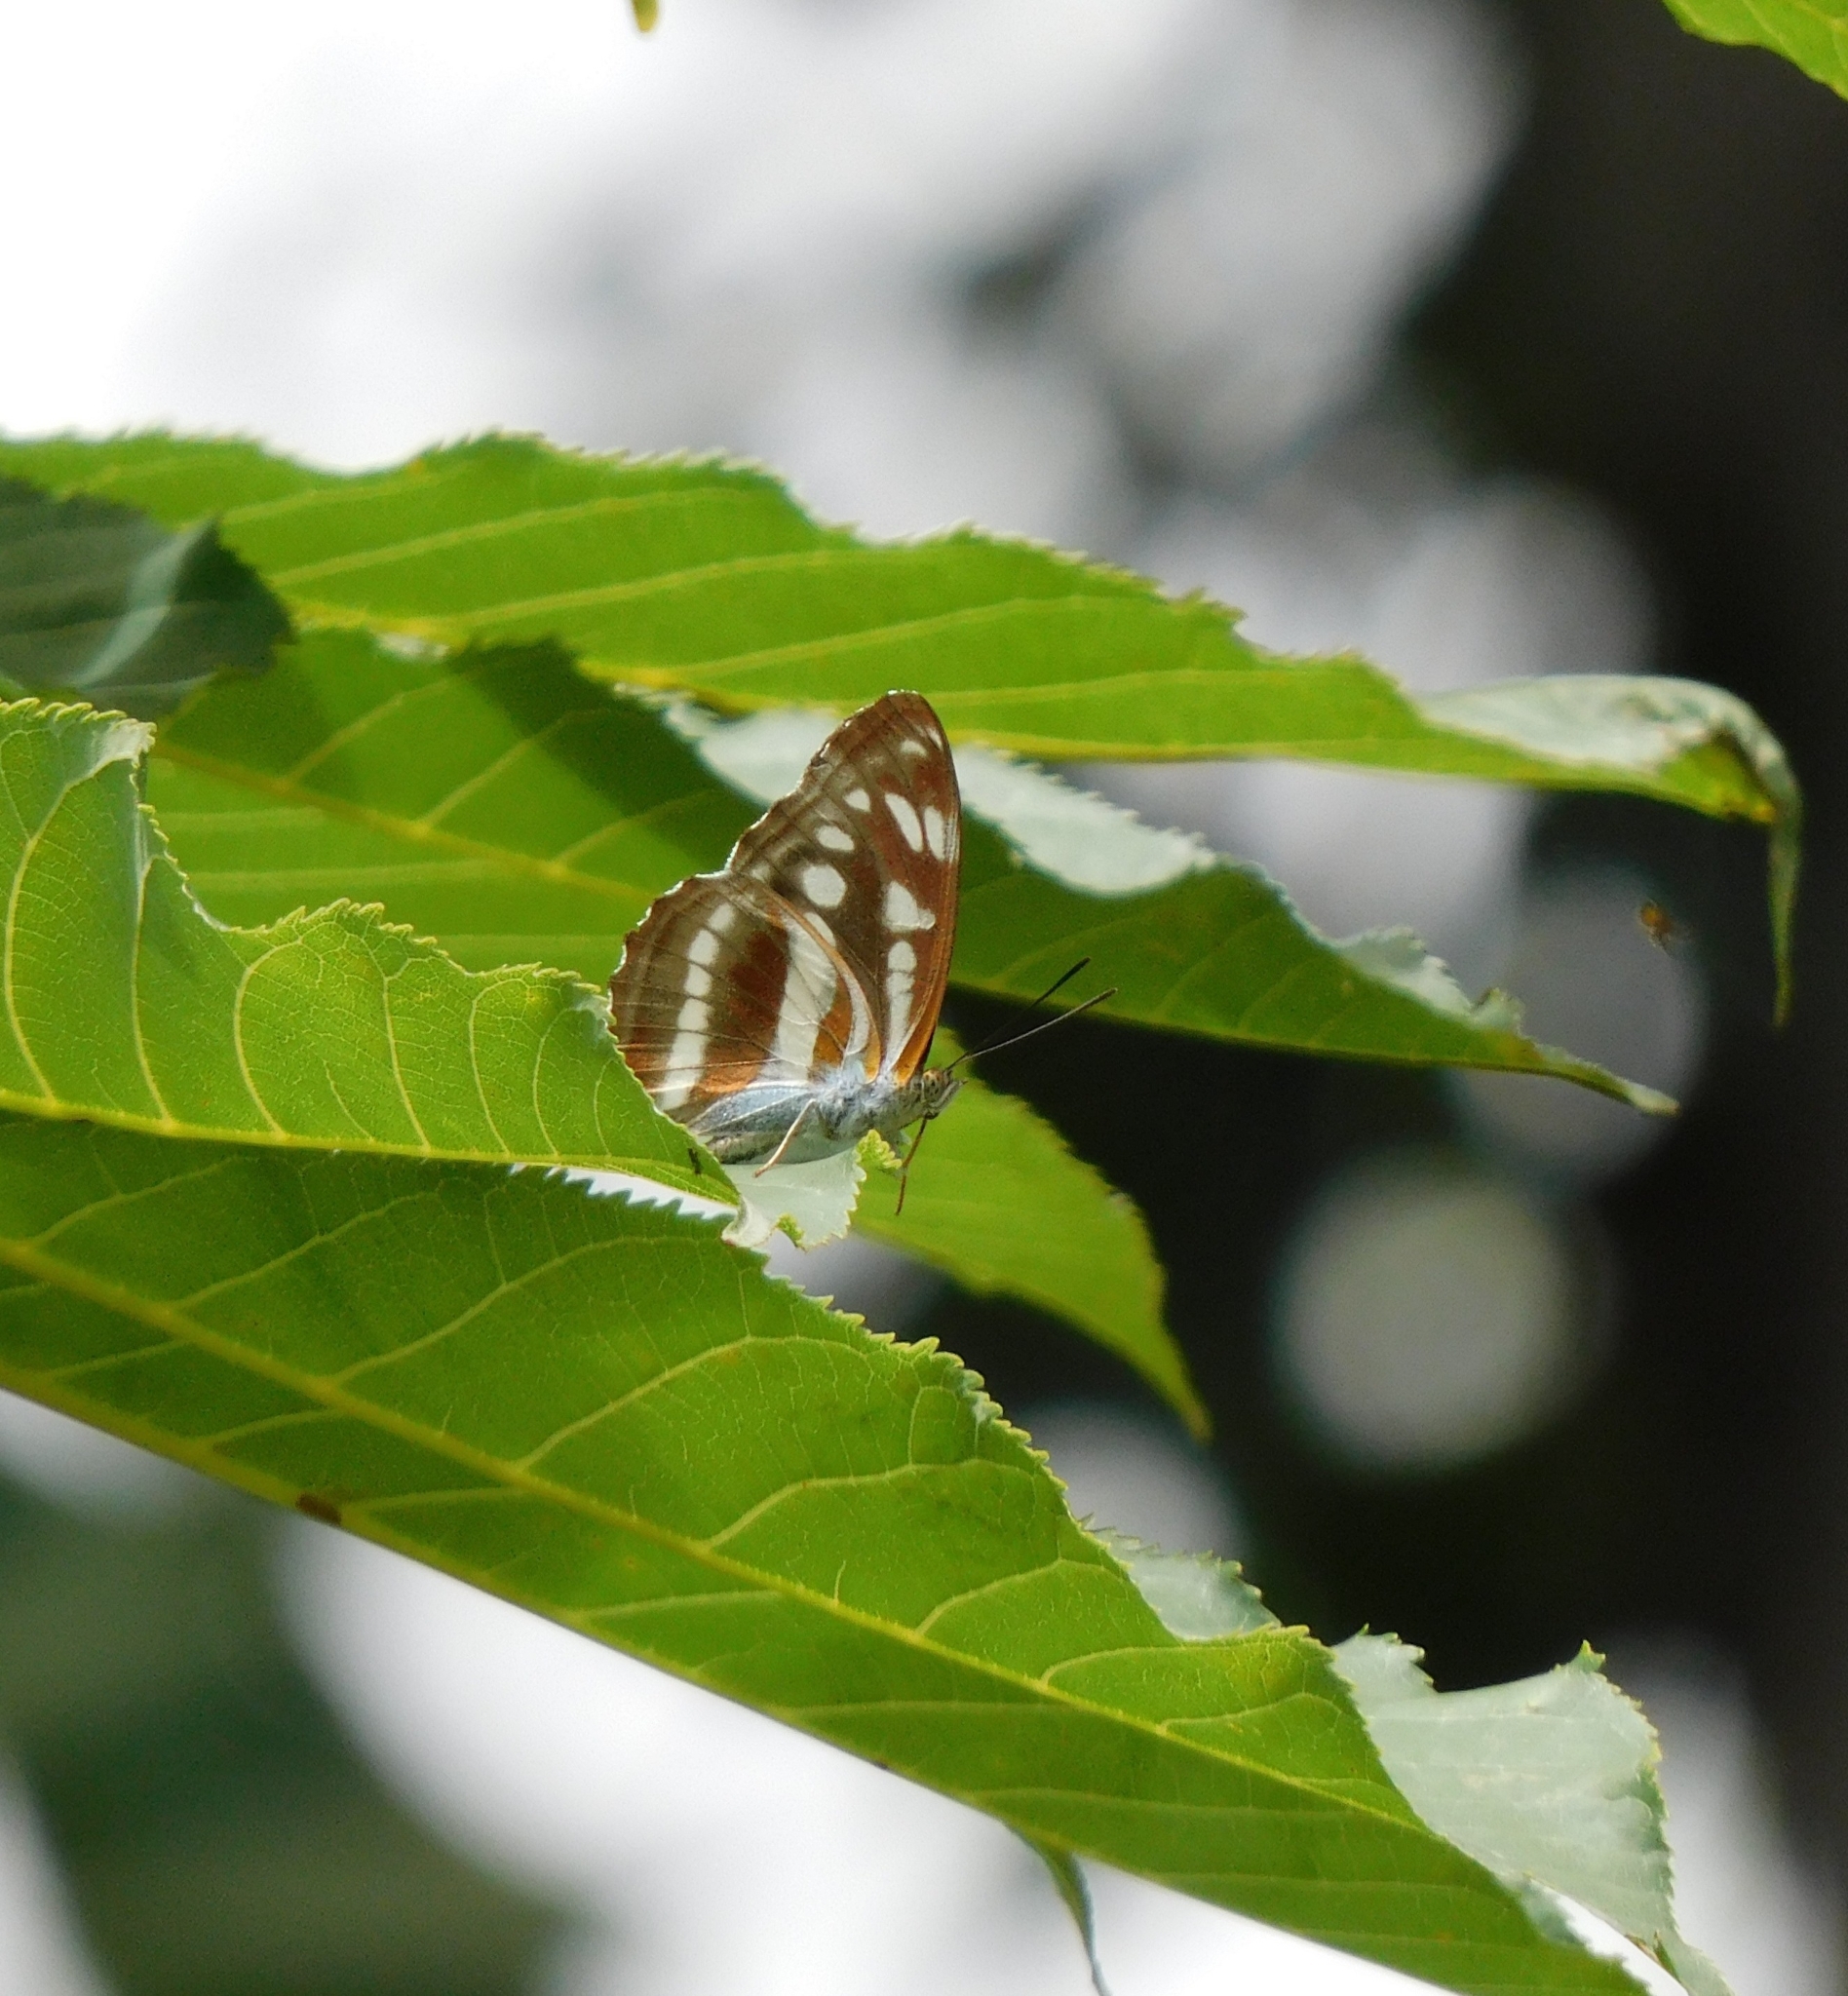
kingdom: Animalia
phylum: Arthropoda
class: Insecta
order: Lepidoptera
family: Nymphalidae
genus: Parathyma
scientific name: Parathyma opalina
